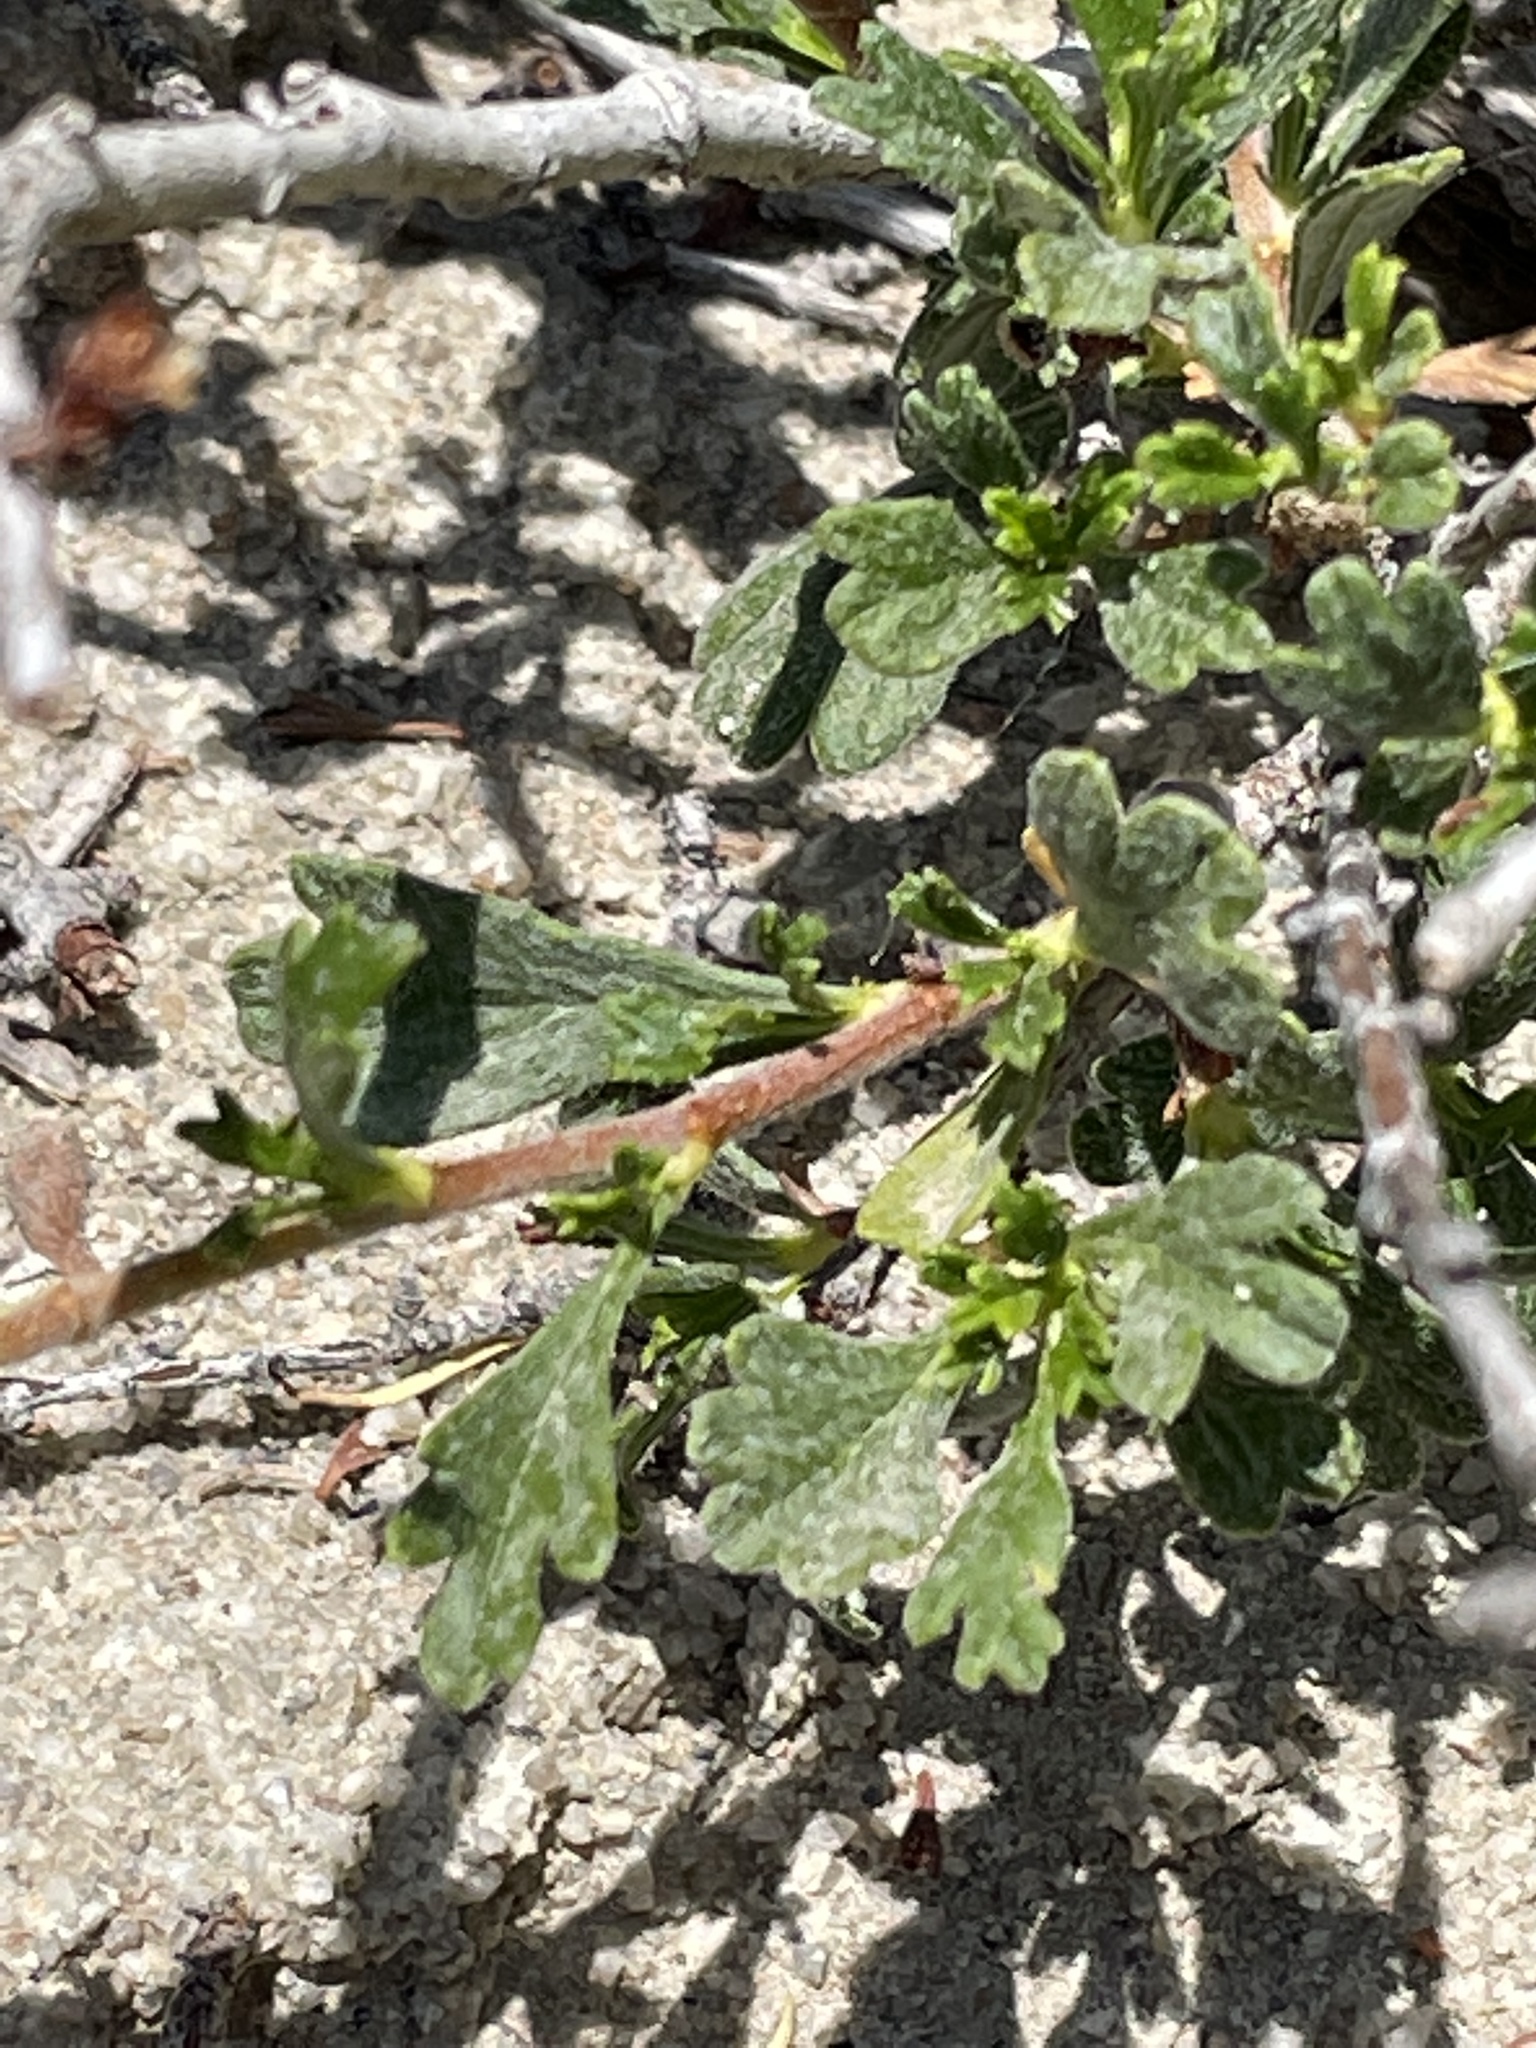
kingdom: Plantae
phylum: Tracheophyta
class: Magnoliopsida
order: Rosales
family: Rosaceae
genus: Purshia
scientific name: Purshia tridentata
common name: Antelope bitterbrush
